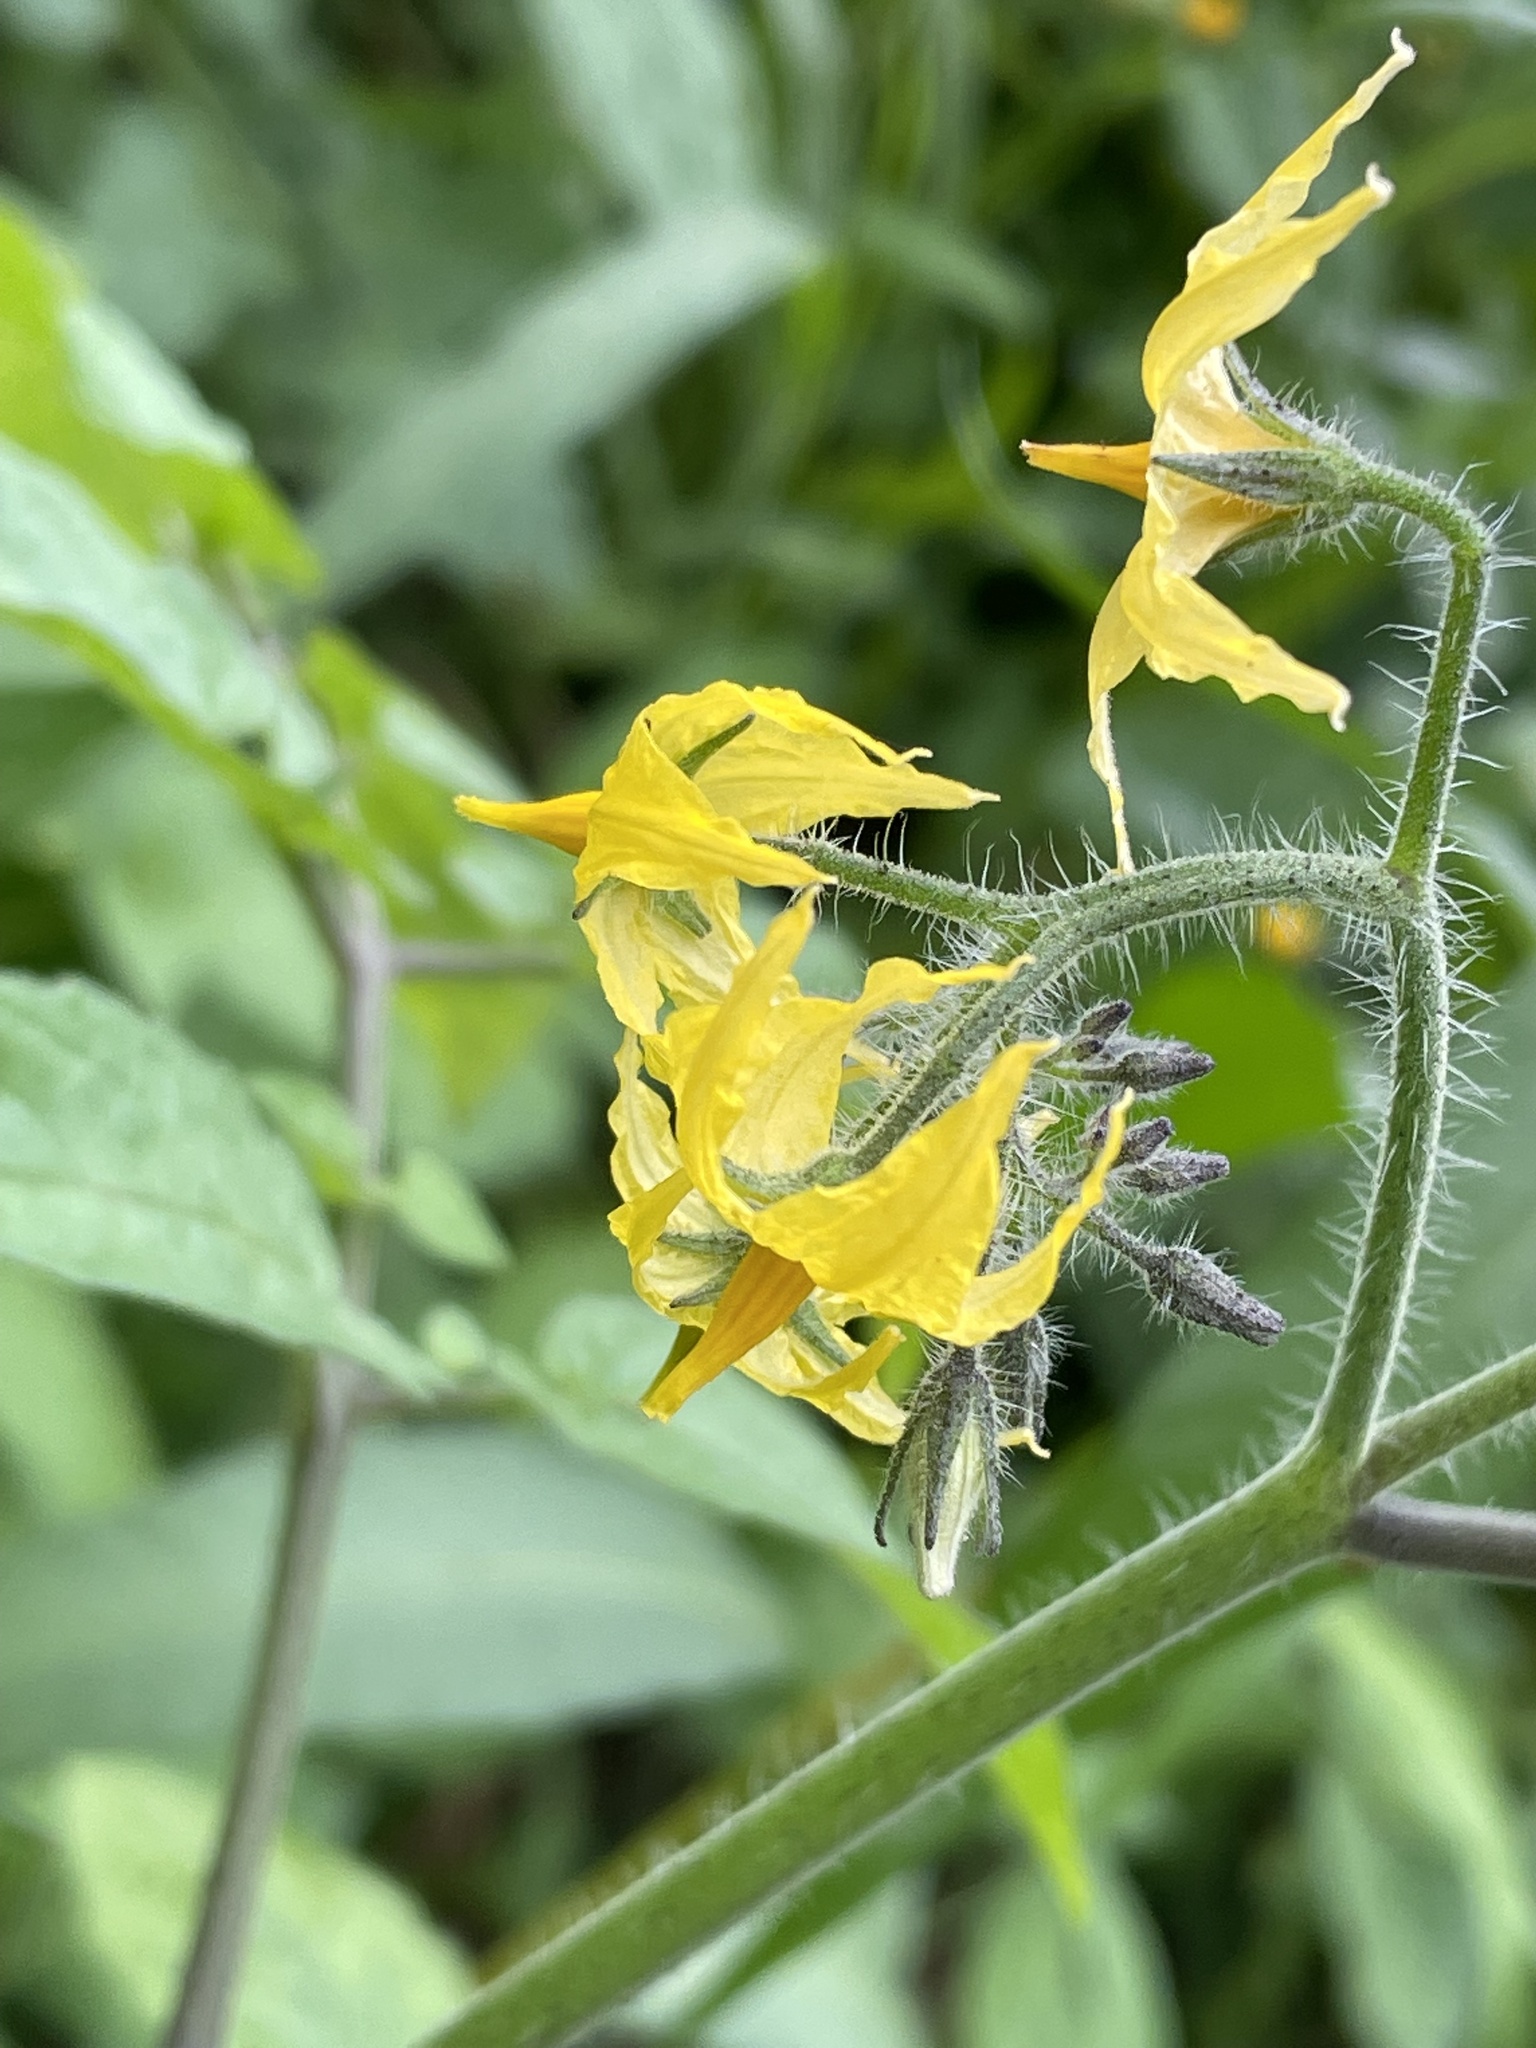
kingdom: Plantae
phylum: Tracheophyta
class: Magnoliopsida
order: Solanales
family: Solanaceae
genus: Solanum
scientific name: Solanum lycopersicum
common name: Garden tomato
